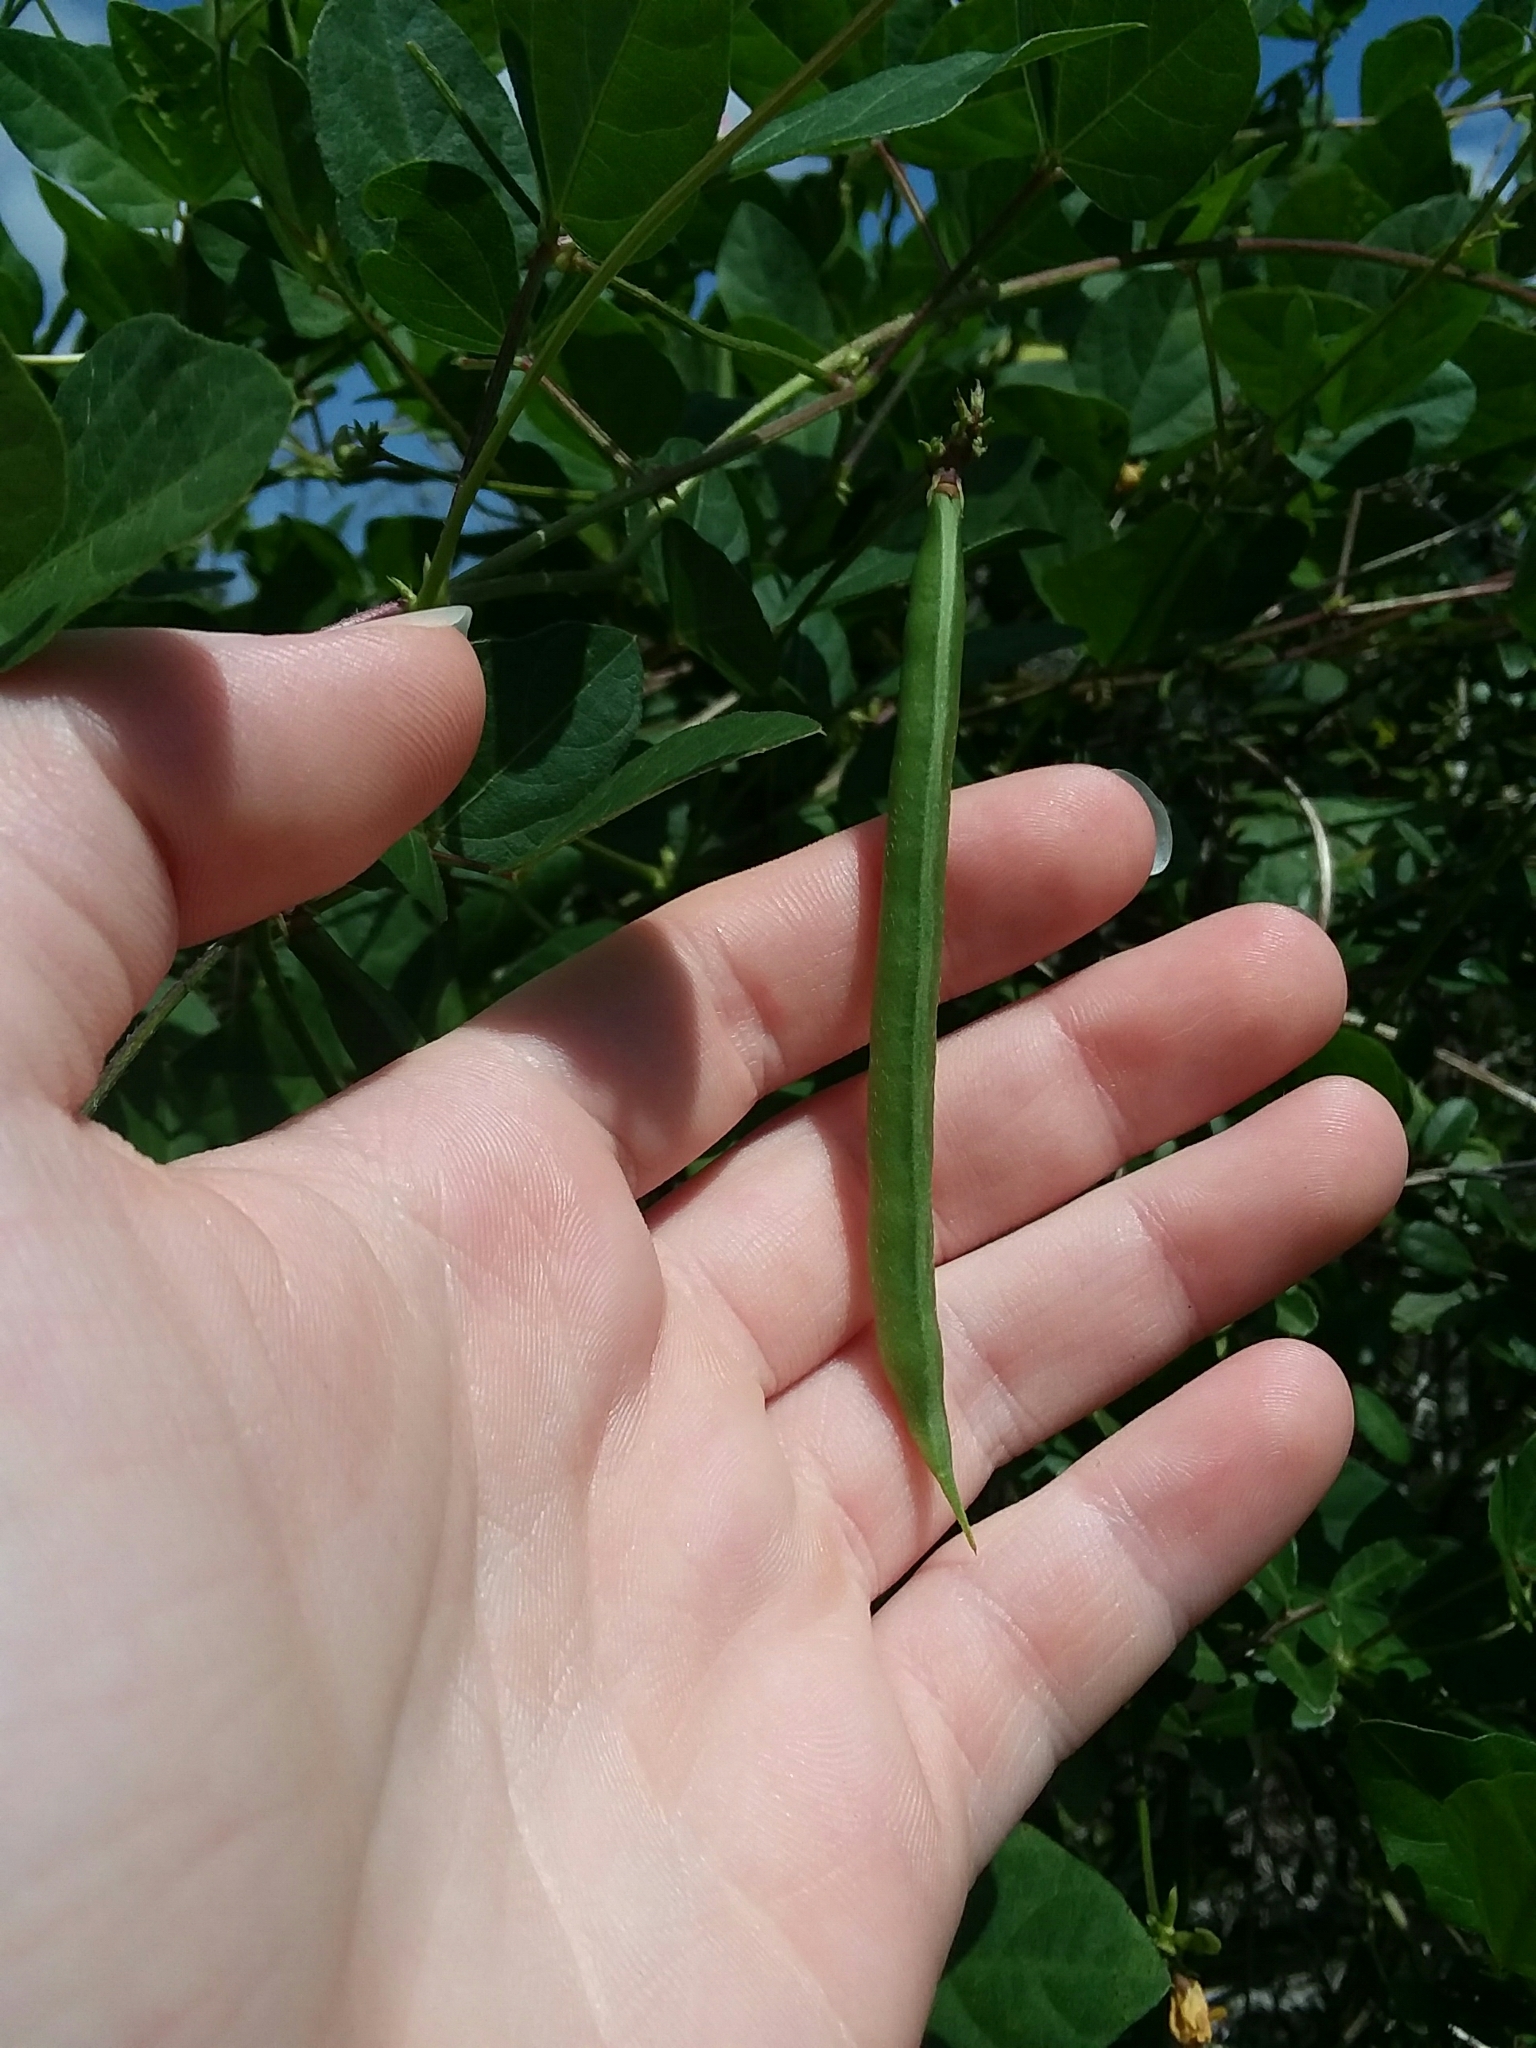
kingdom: Plantae
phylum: Tracheophyta
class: Magnoliopsida
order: Fabales
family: Fabaceae
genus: Strophostyles
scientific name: Strophostyles helvola
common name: Trailing wild bean
